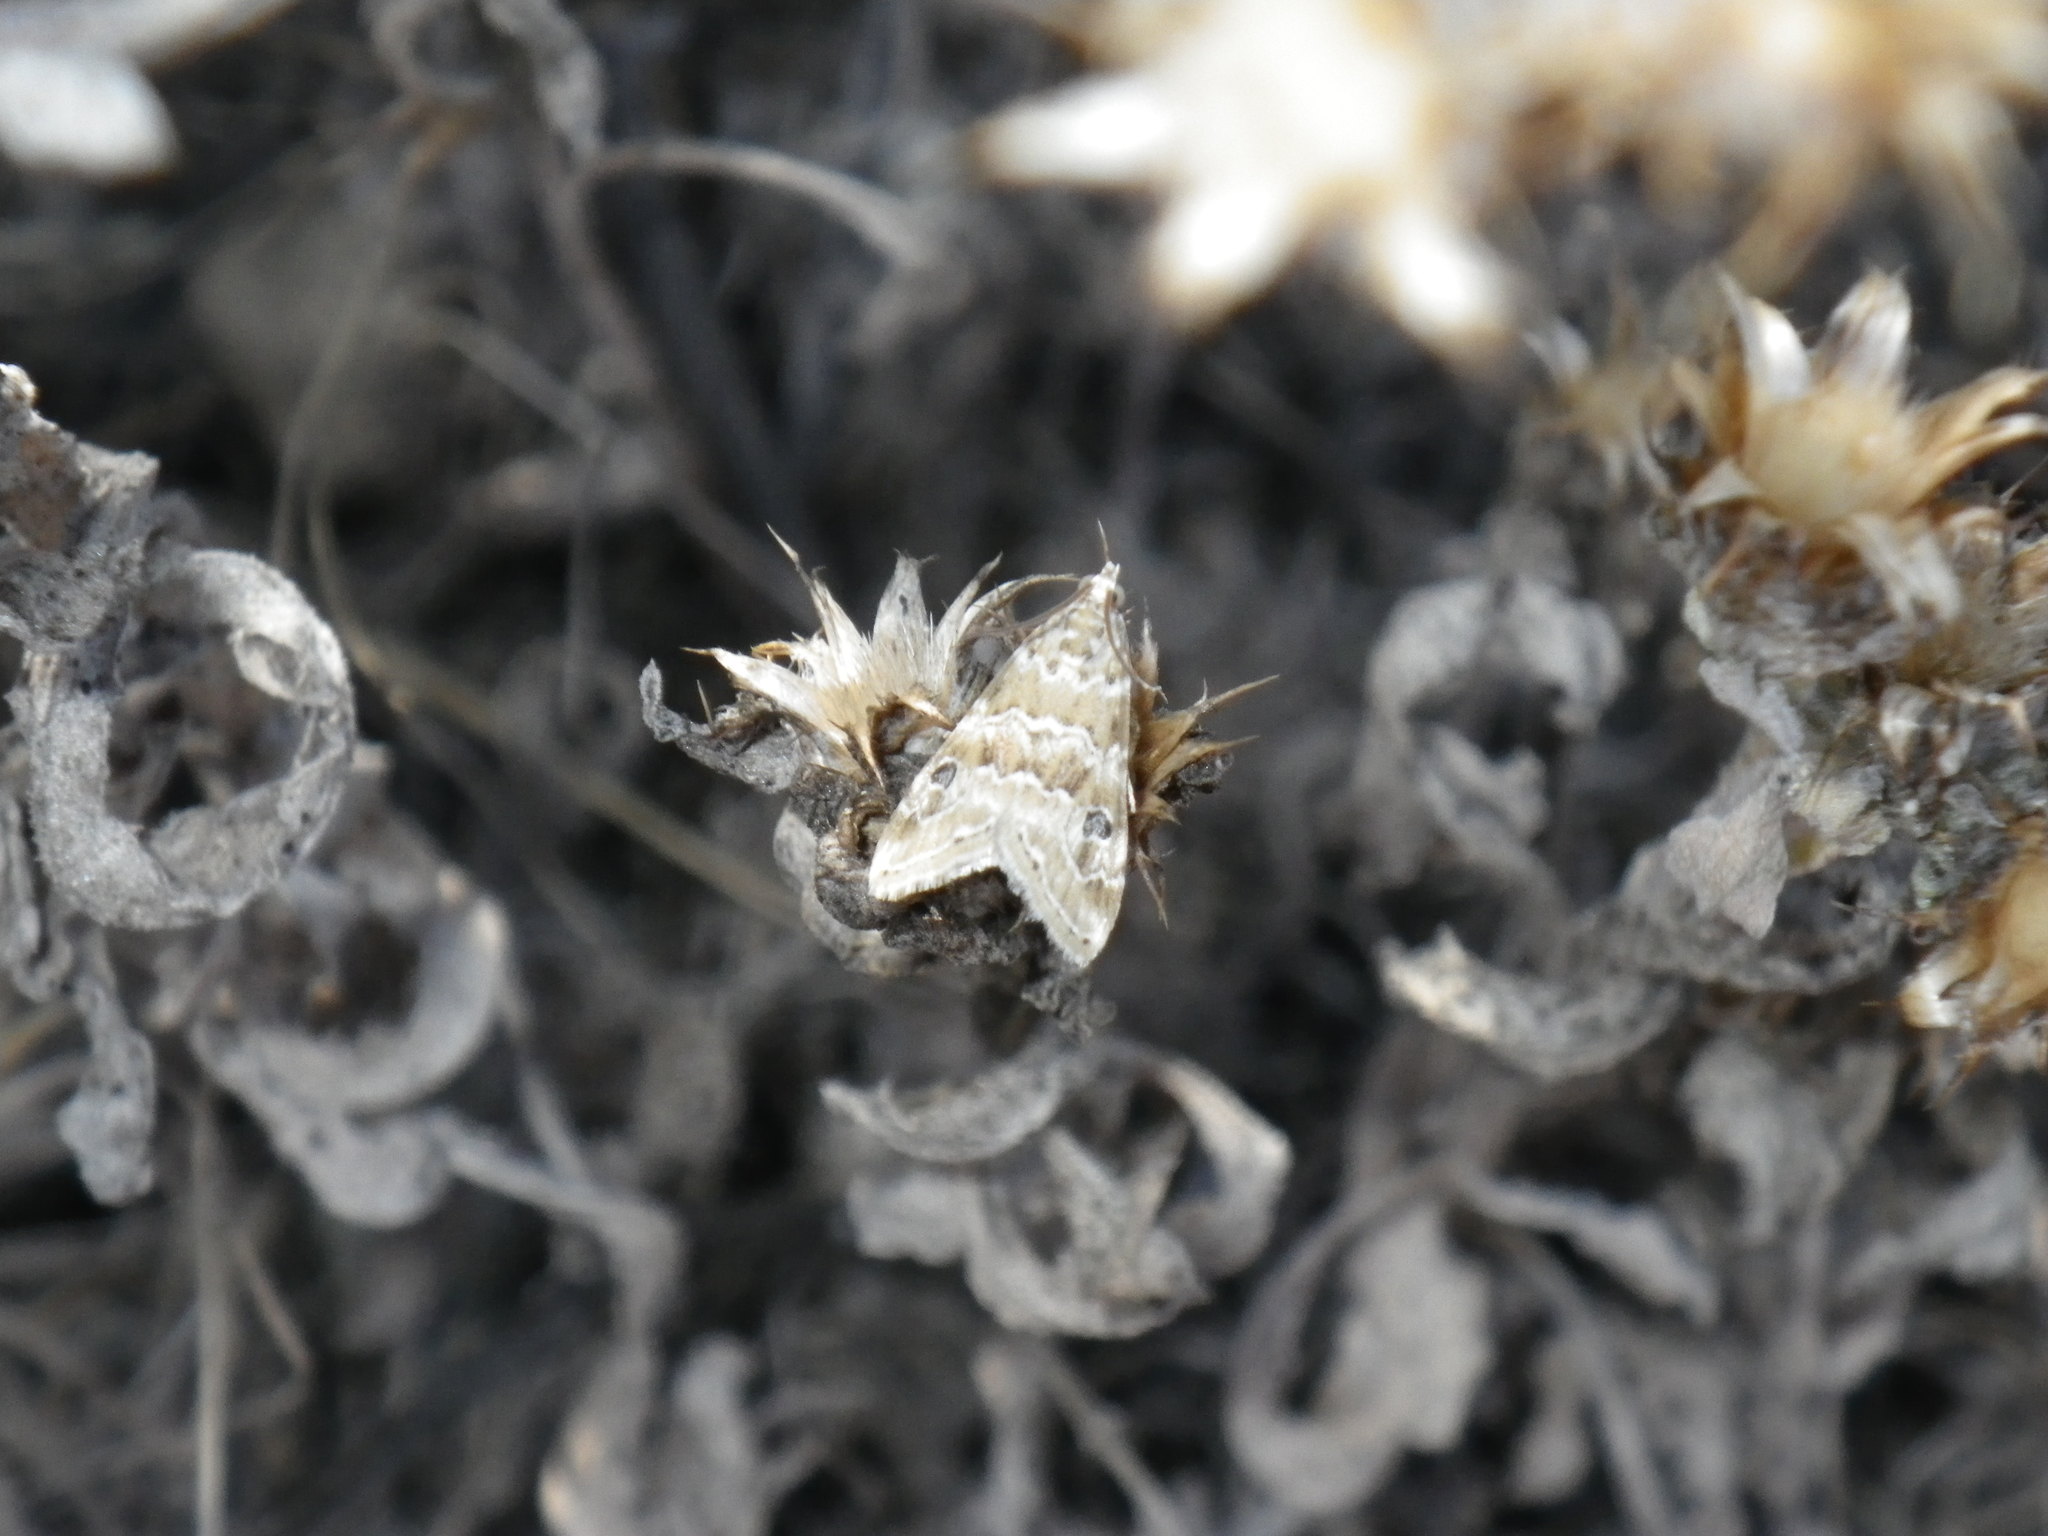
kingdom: Animalia
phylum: Arthropoda
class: Insecta
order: Lepidoptera
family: Crambidae
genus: Hellula
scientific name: Hellula rogatalis
